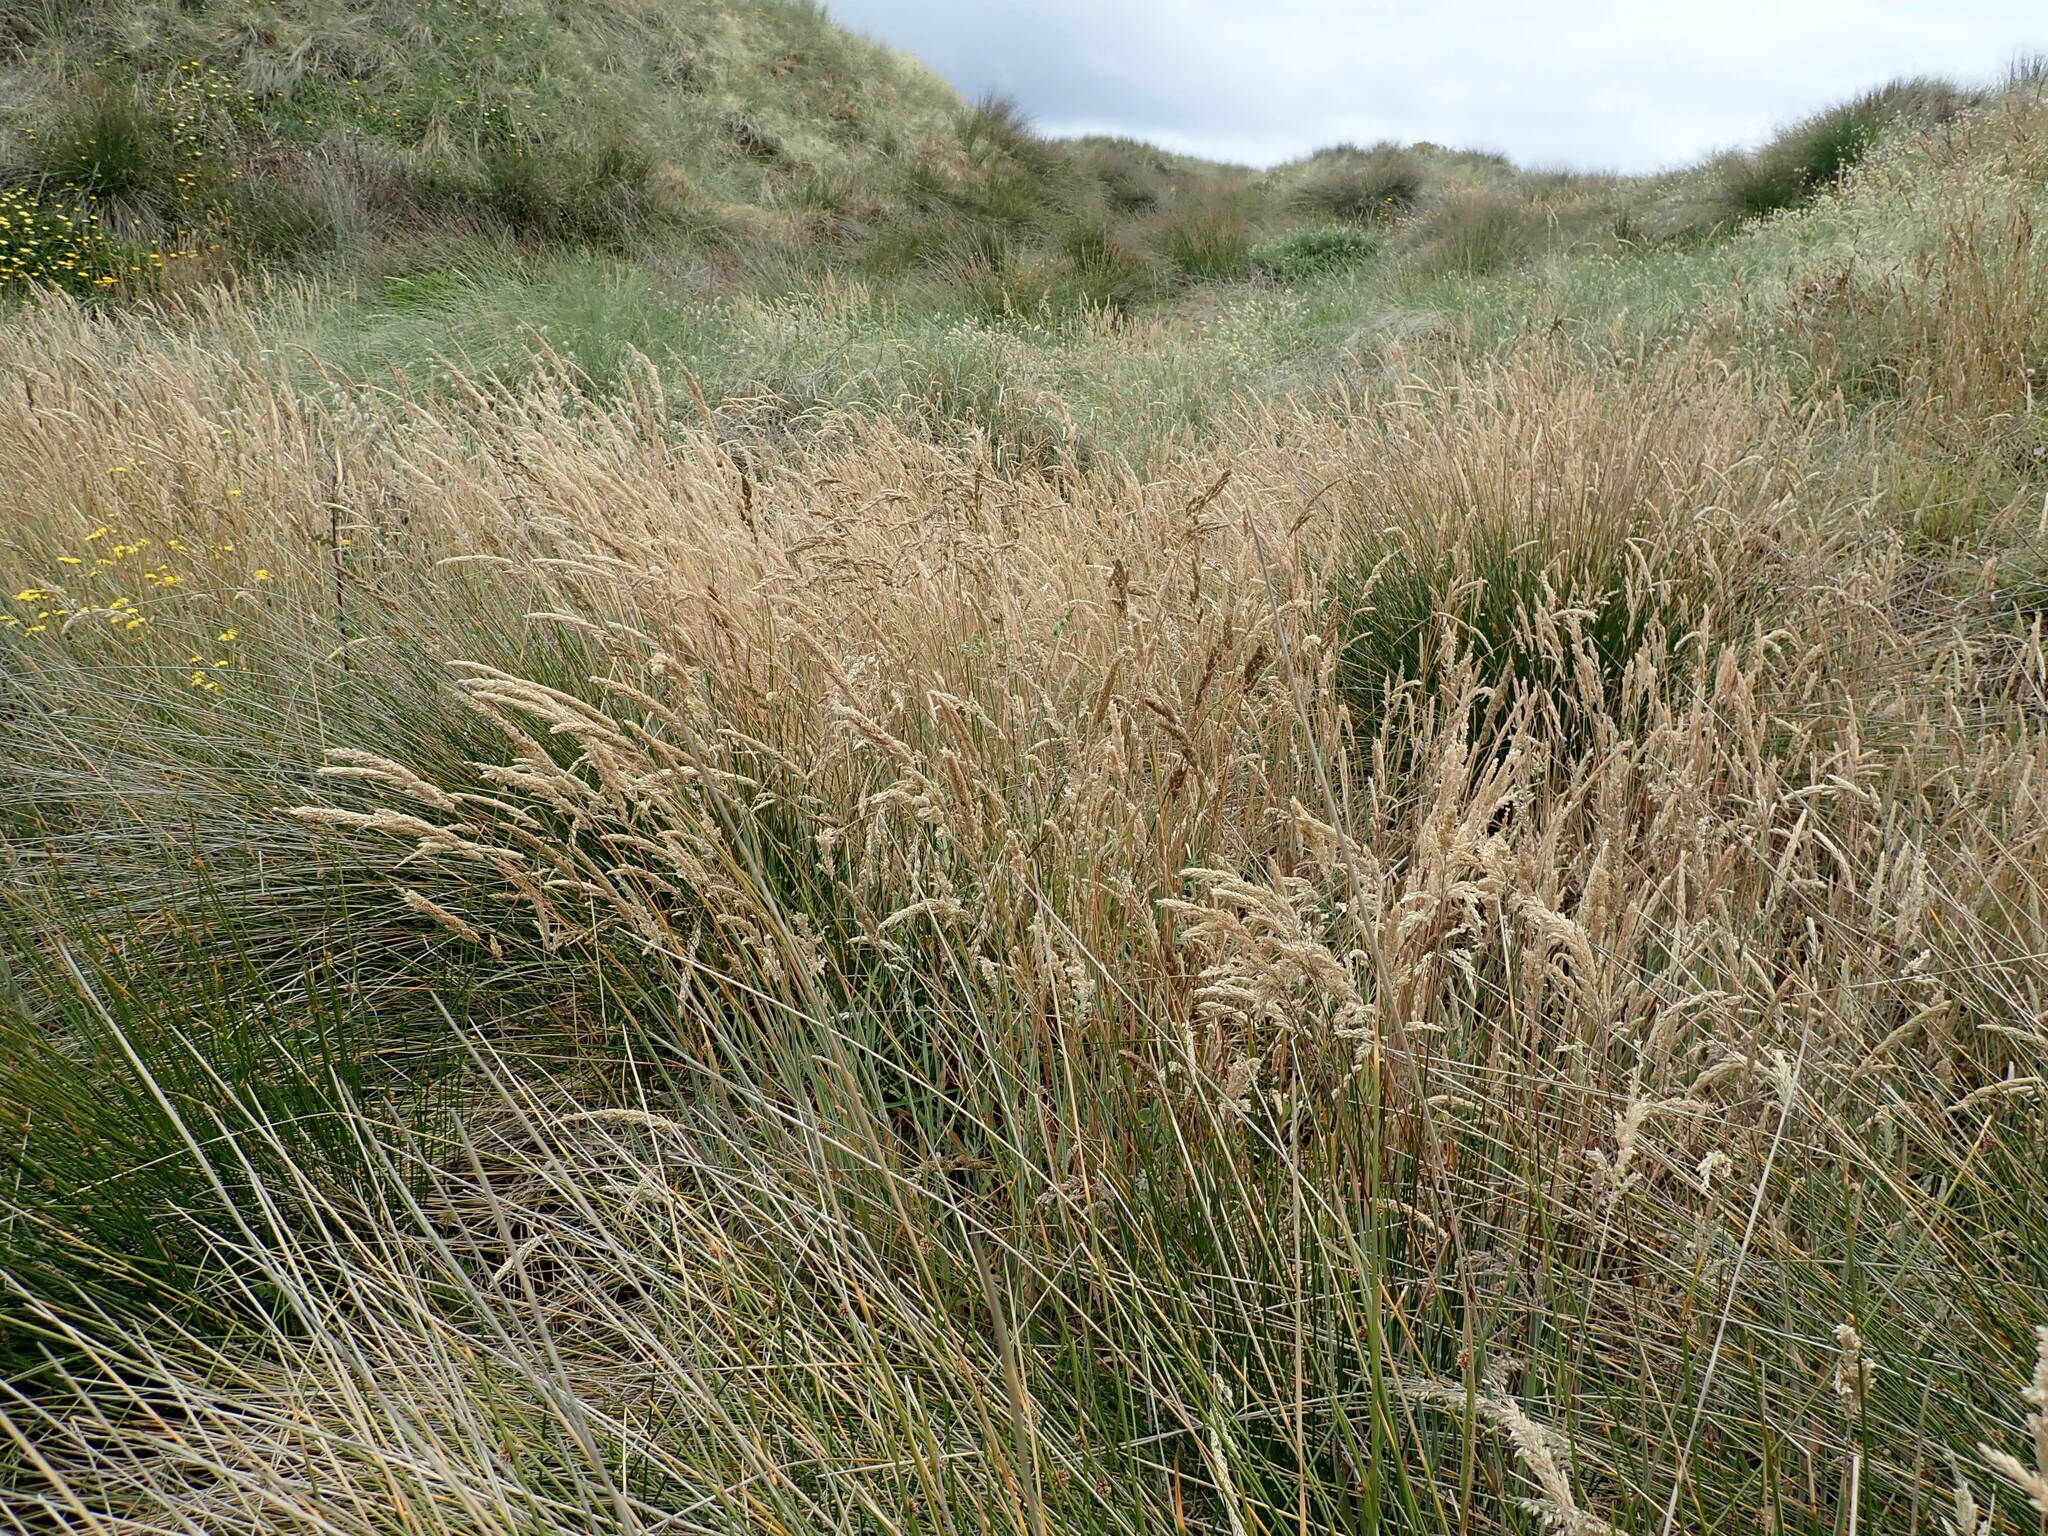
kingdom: Plantae
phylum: Tracheophyta
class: Liliopsida
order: Poales
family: Poaceae
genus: Holcus
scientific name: Holcus lanatus
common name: Yorkshire-fog
